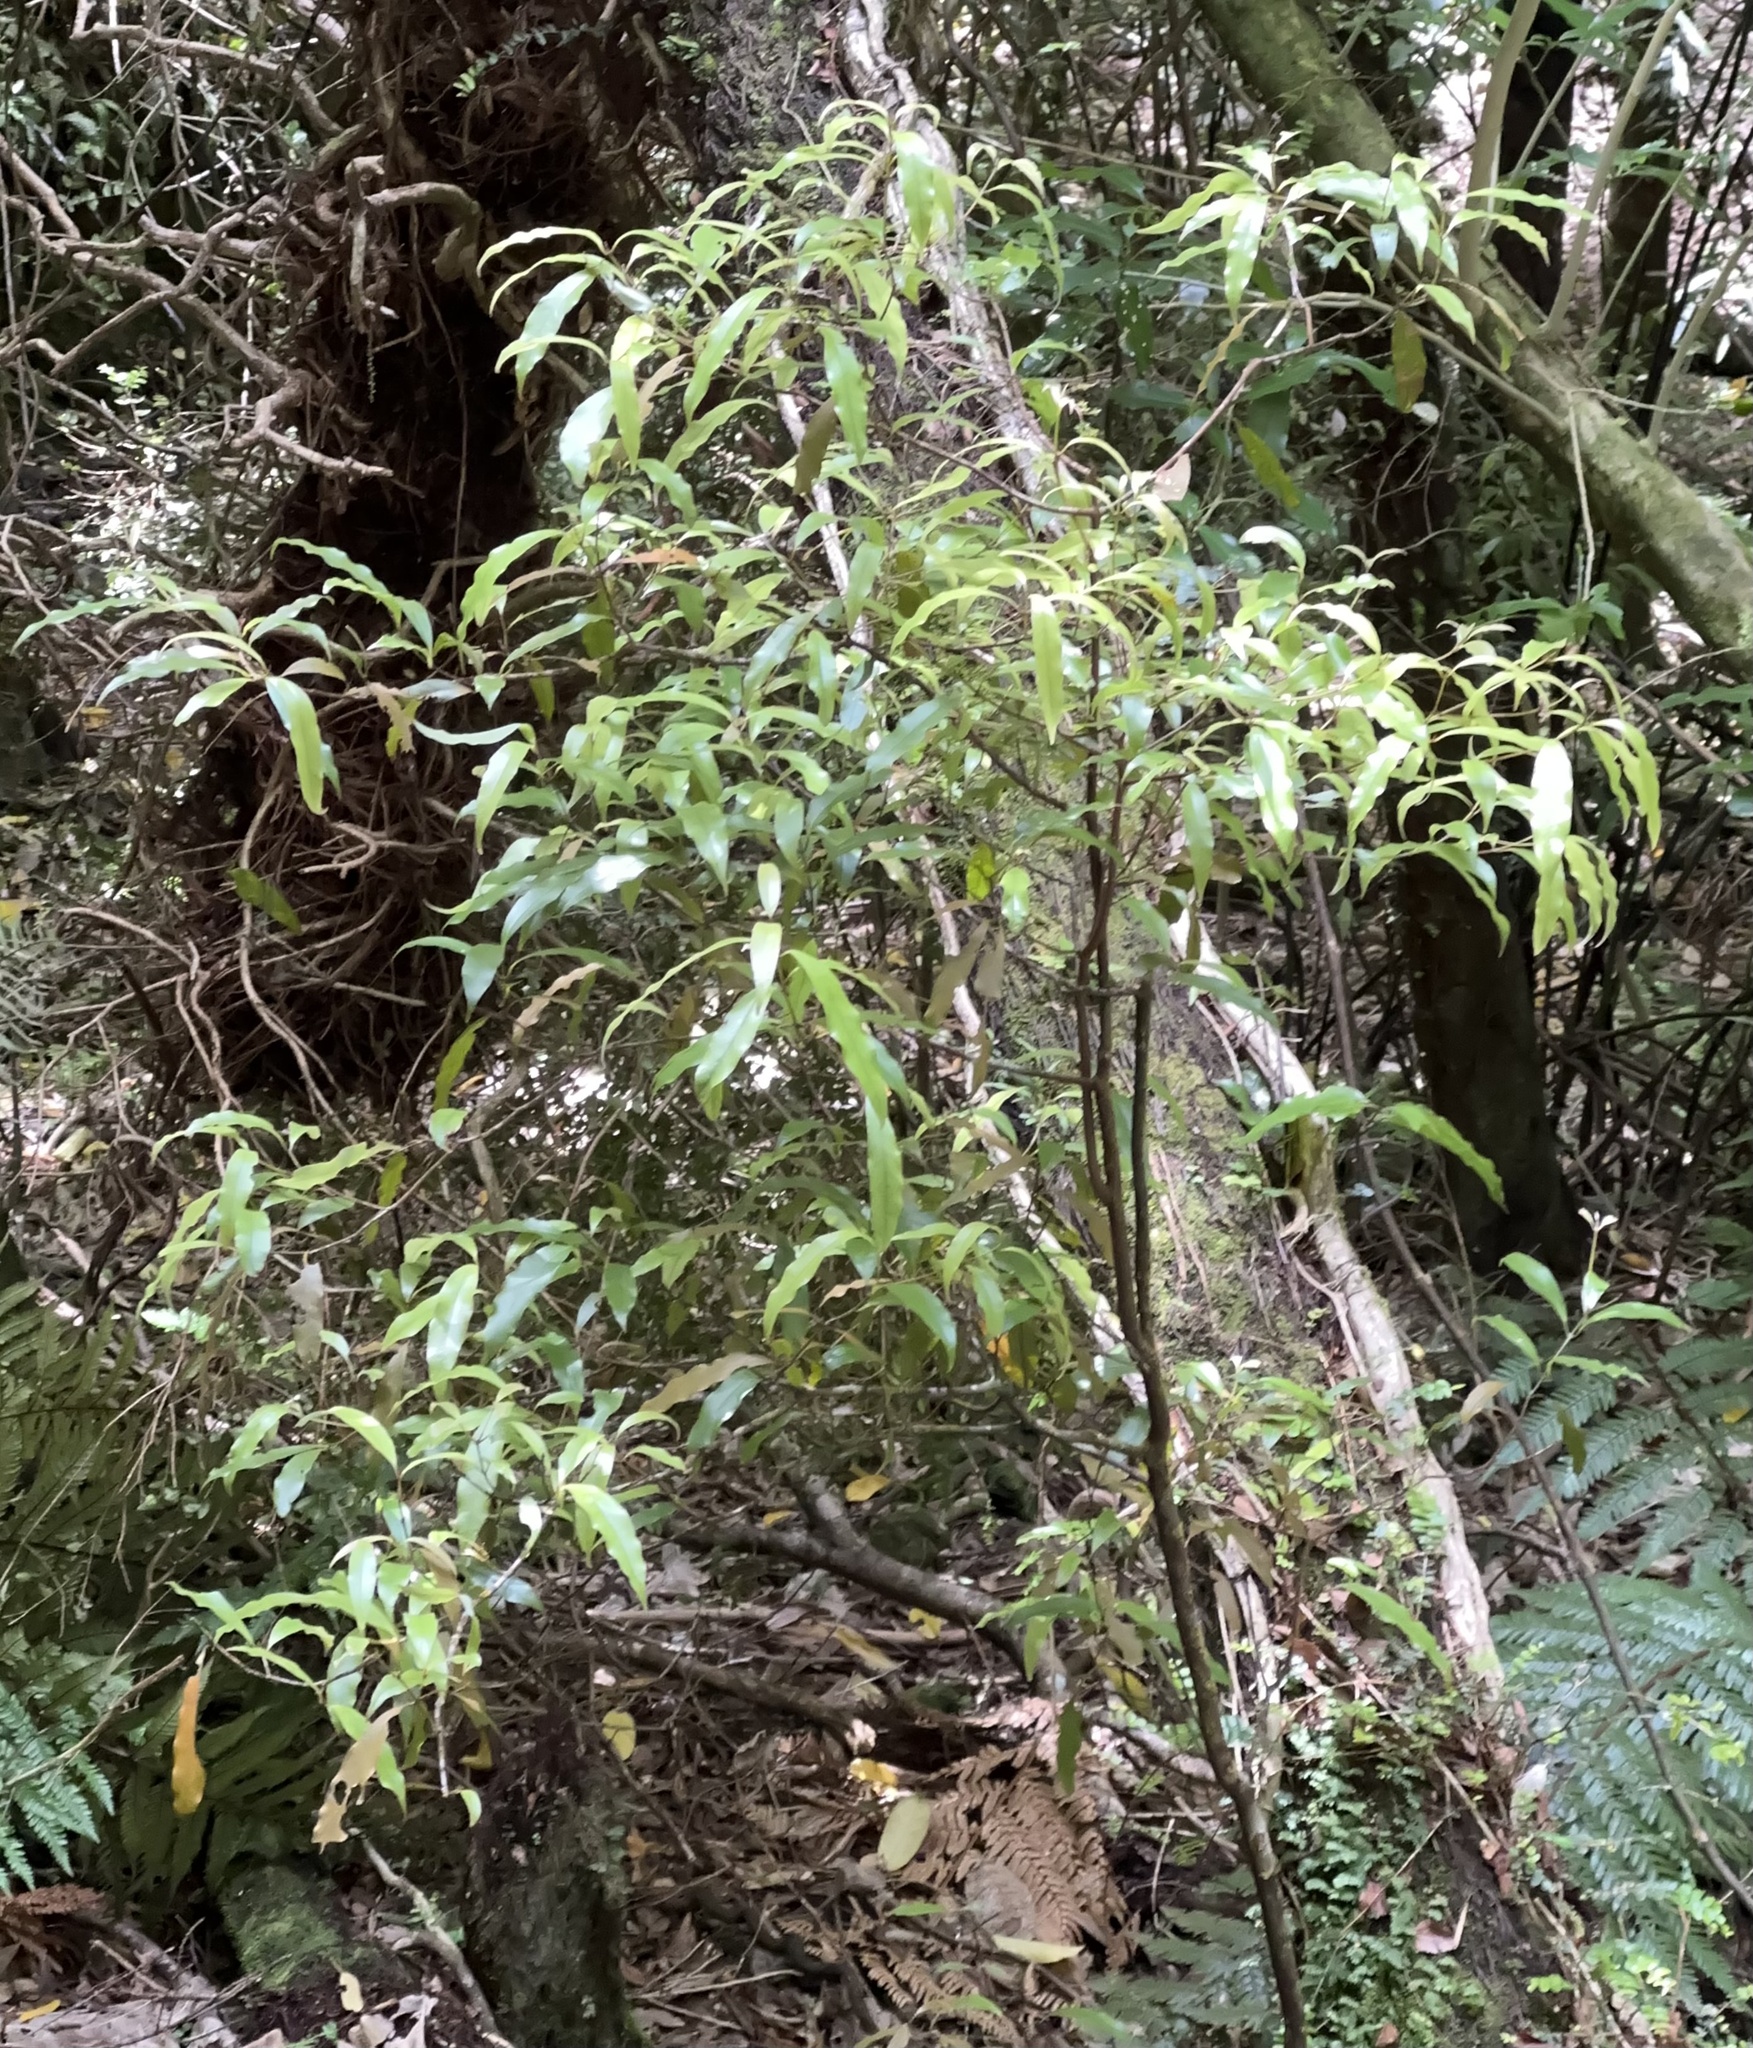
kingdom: Plantae
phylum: Tracheophyta
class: Magnoliopsida
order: Laurales
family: Lauraceae
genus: Beilschmiedia
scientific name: Beilschmiedia tawa
